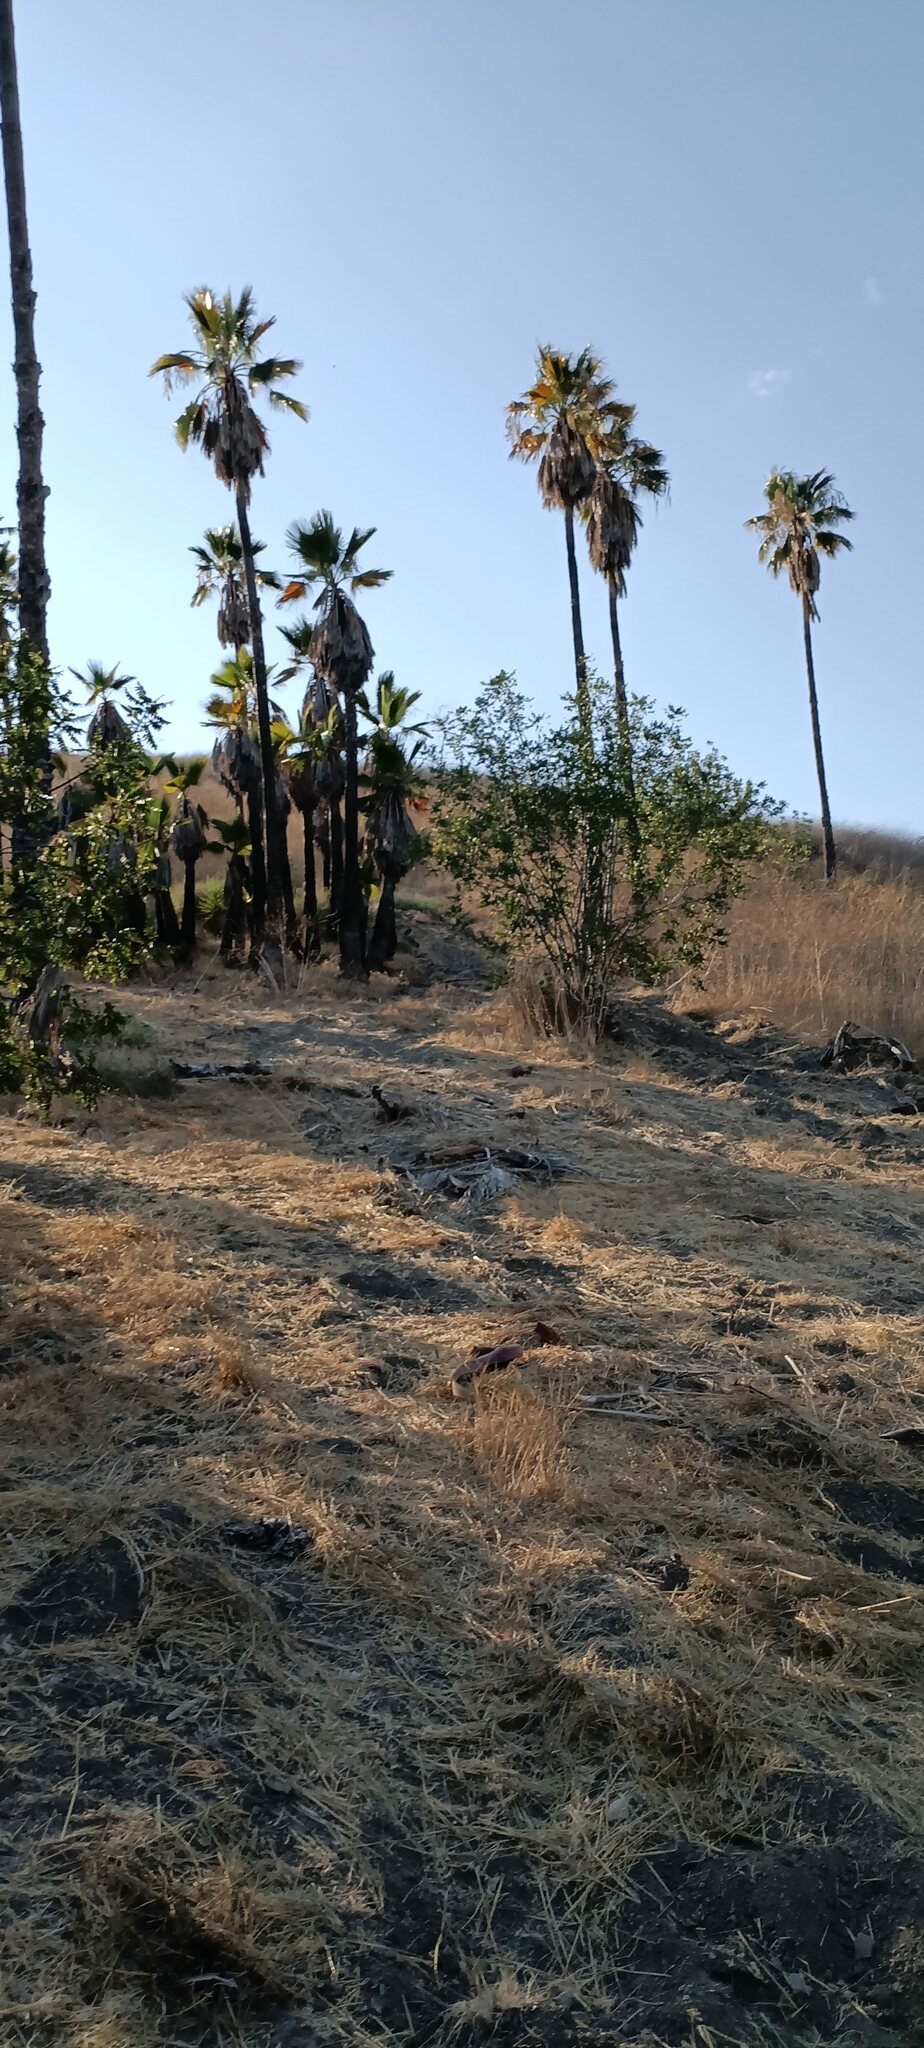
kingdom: Plantae
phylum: Tracheophyta
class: Magnoliopsida
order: Fagales
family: Juglandaceae
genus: Juglans
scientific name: Juglans californica
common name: Southern california black walnut
